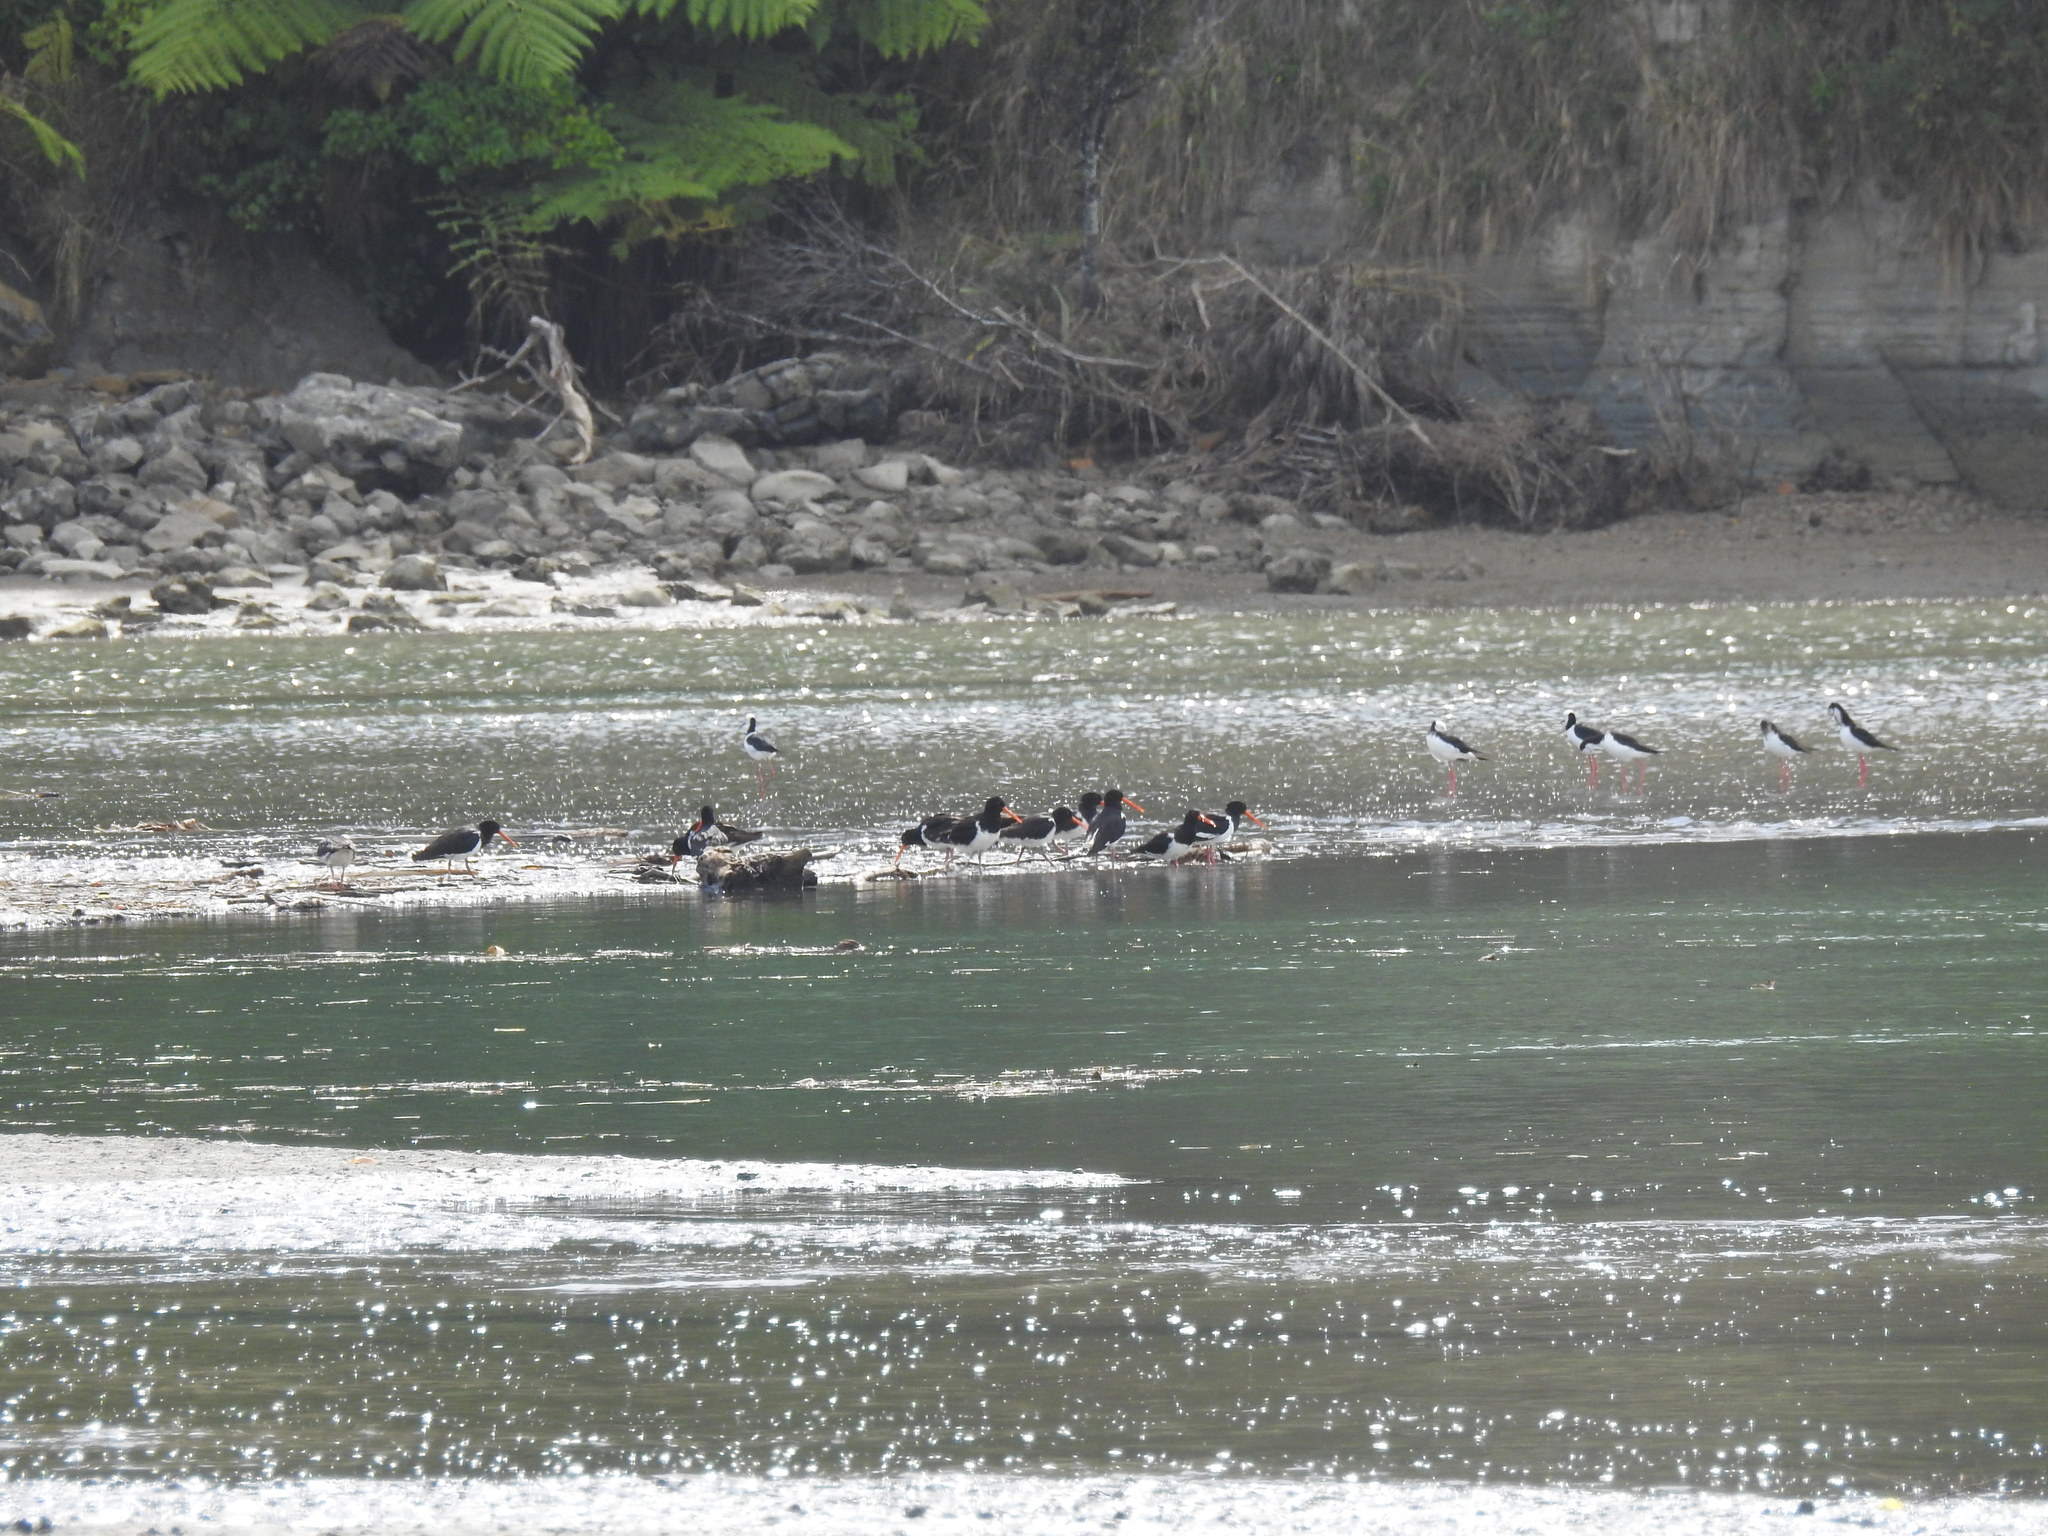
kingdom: Animalia
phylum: Chordata
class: Aves
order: Charadriiformes
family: Haematopodidae
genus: Haematopus
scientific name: Haematopus finschi
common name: South island oystercatcher
